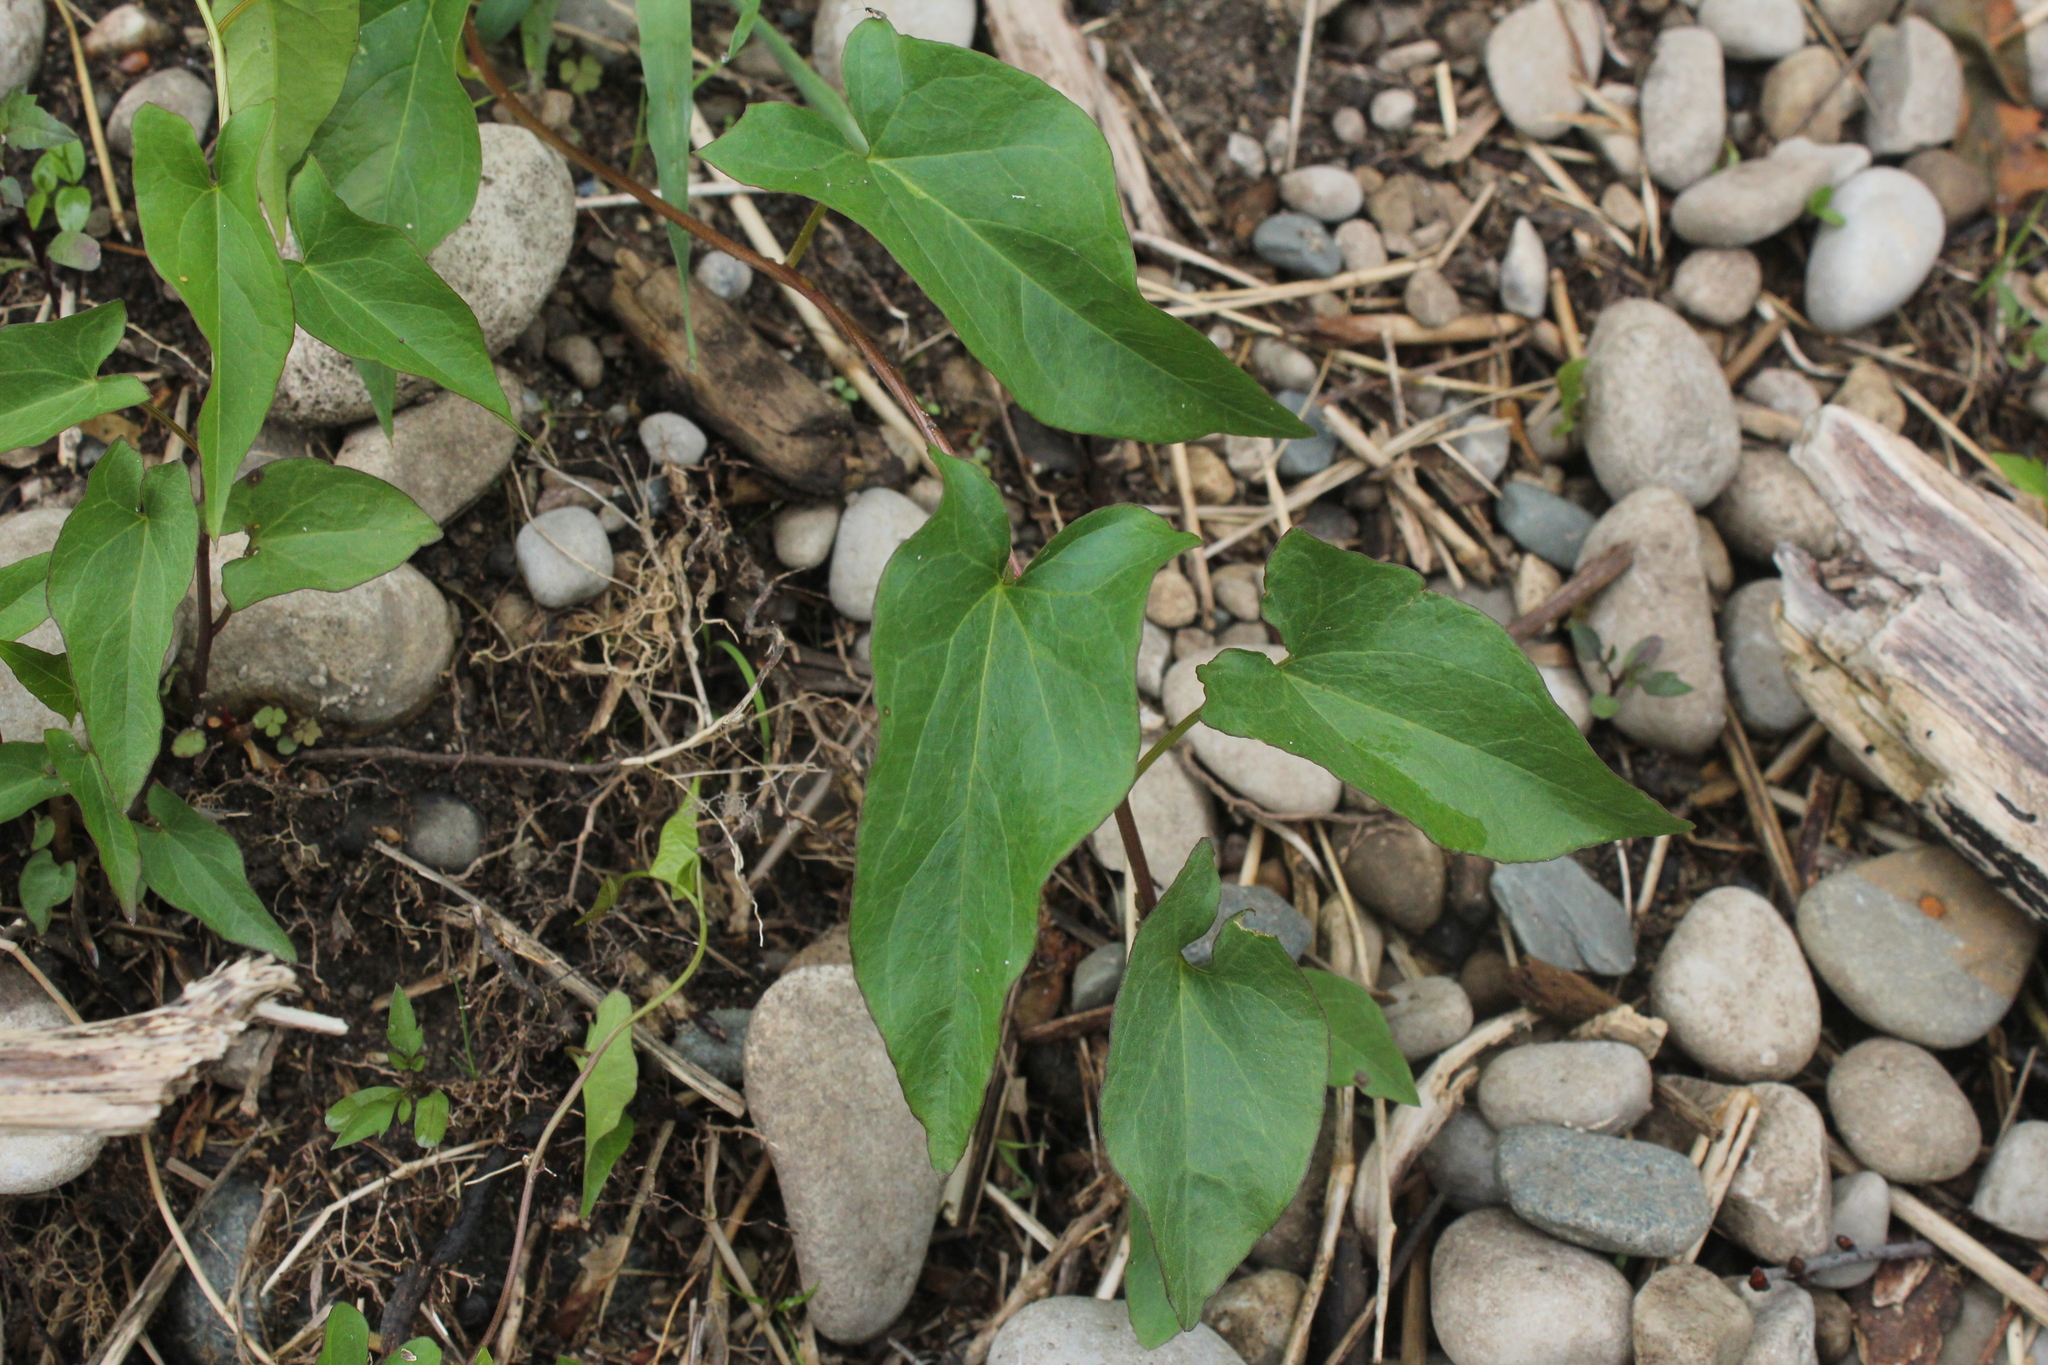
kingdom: Plantae
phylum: Tracheophyta
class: Magnoliopsida
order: Solanales
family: Convolvulaceae
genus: Calystegia
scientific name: Calystegia sepium
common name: Hedge bindweed
